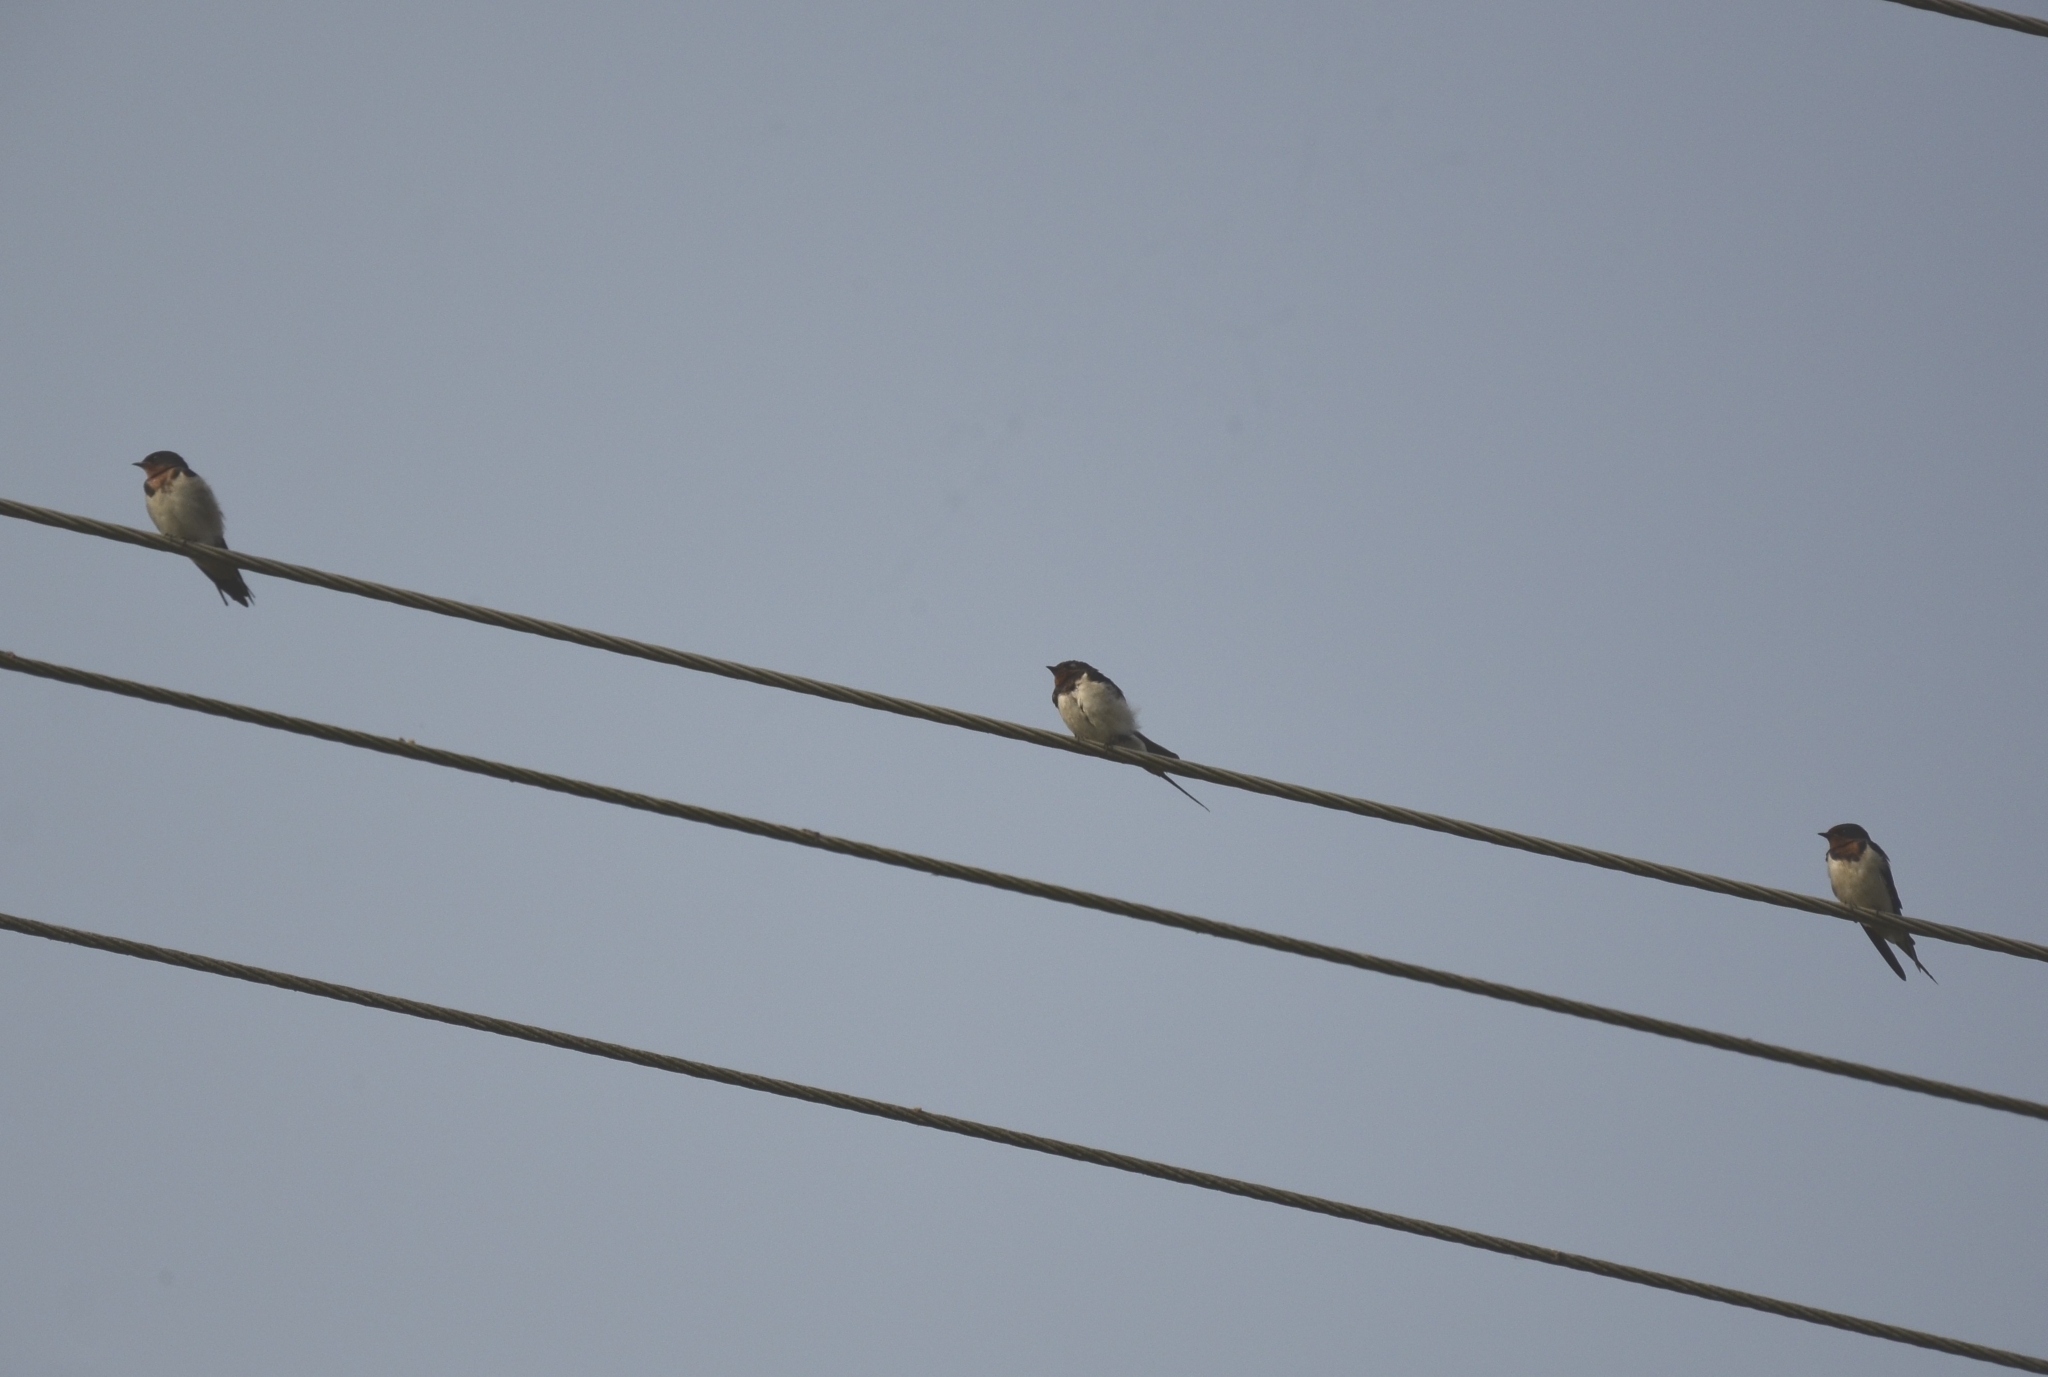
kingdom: Animalia
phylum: Chordata
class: Aves
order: Passeriformes
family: Hirundinidae
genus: Hirundo
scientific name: Hirundo rustica
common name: Barn swallow
